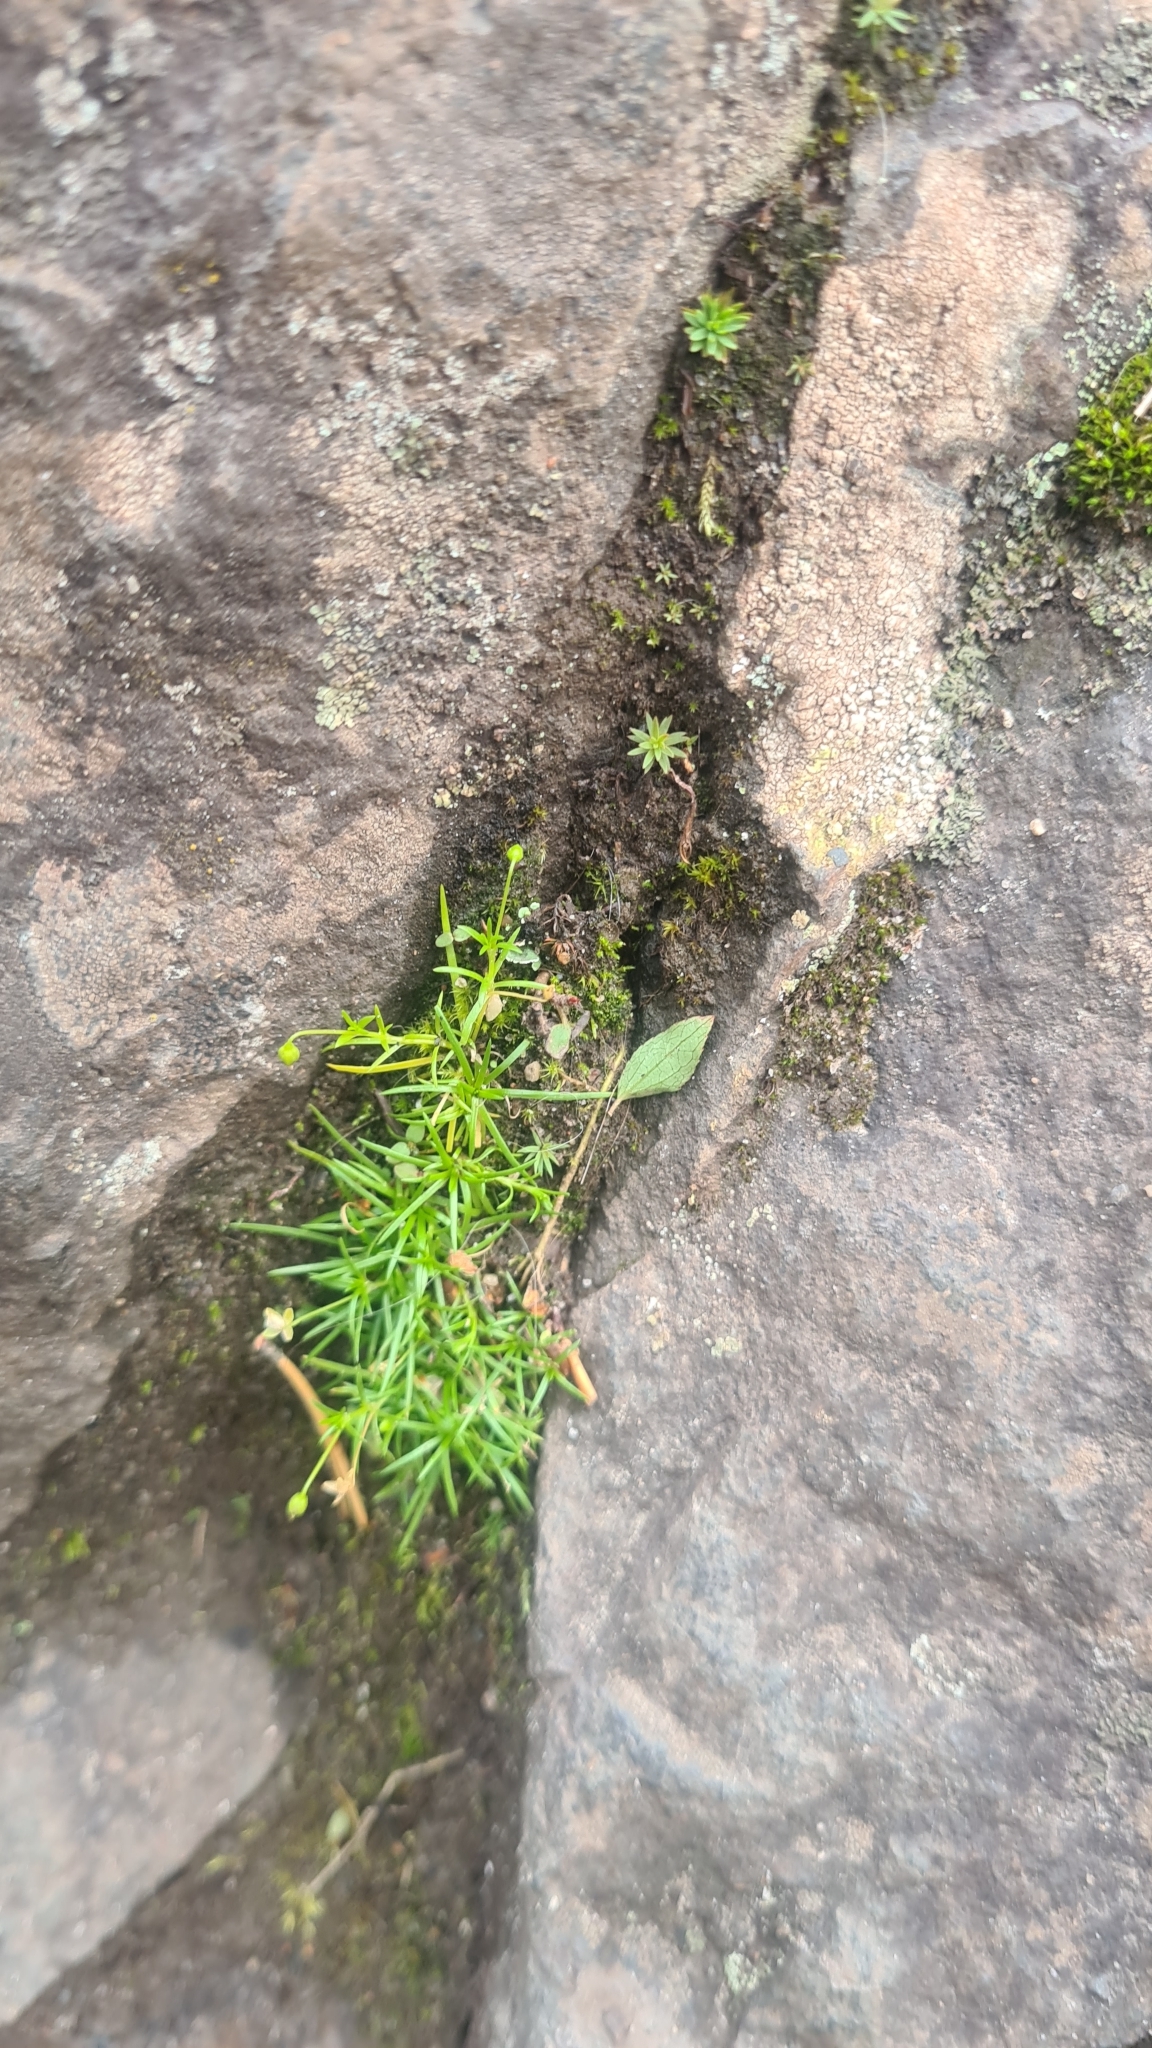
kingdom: Plantae
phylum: Tracheophyta
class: Magnoliopsida
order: Caryophyllales
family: Caryophyllaceae
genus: Sagina
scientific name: Sagina procumbens
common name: Procumbent pearlwort
